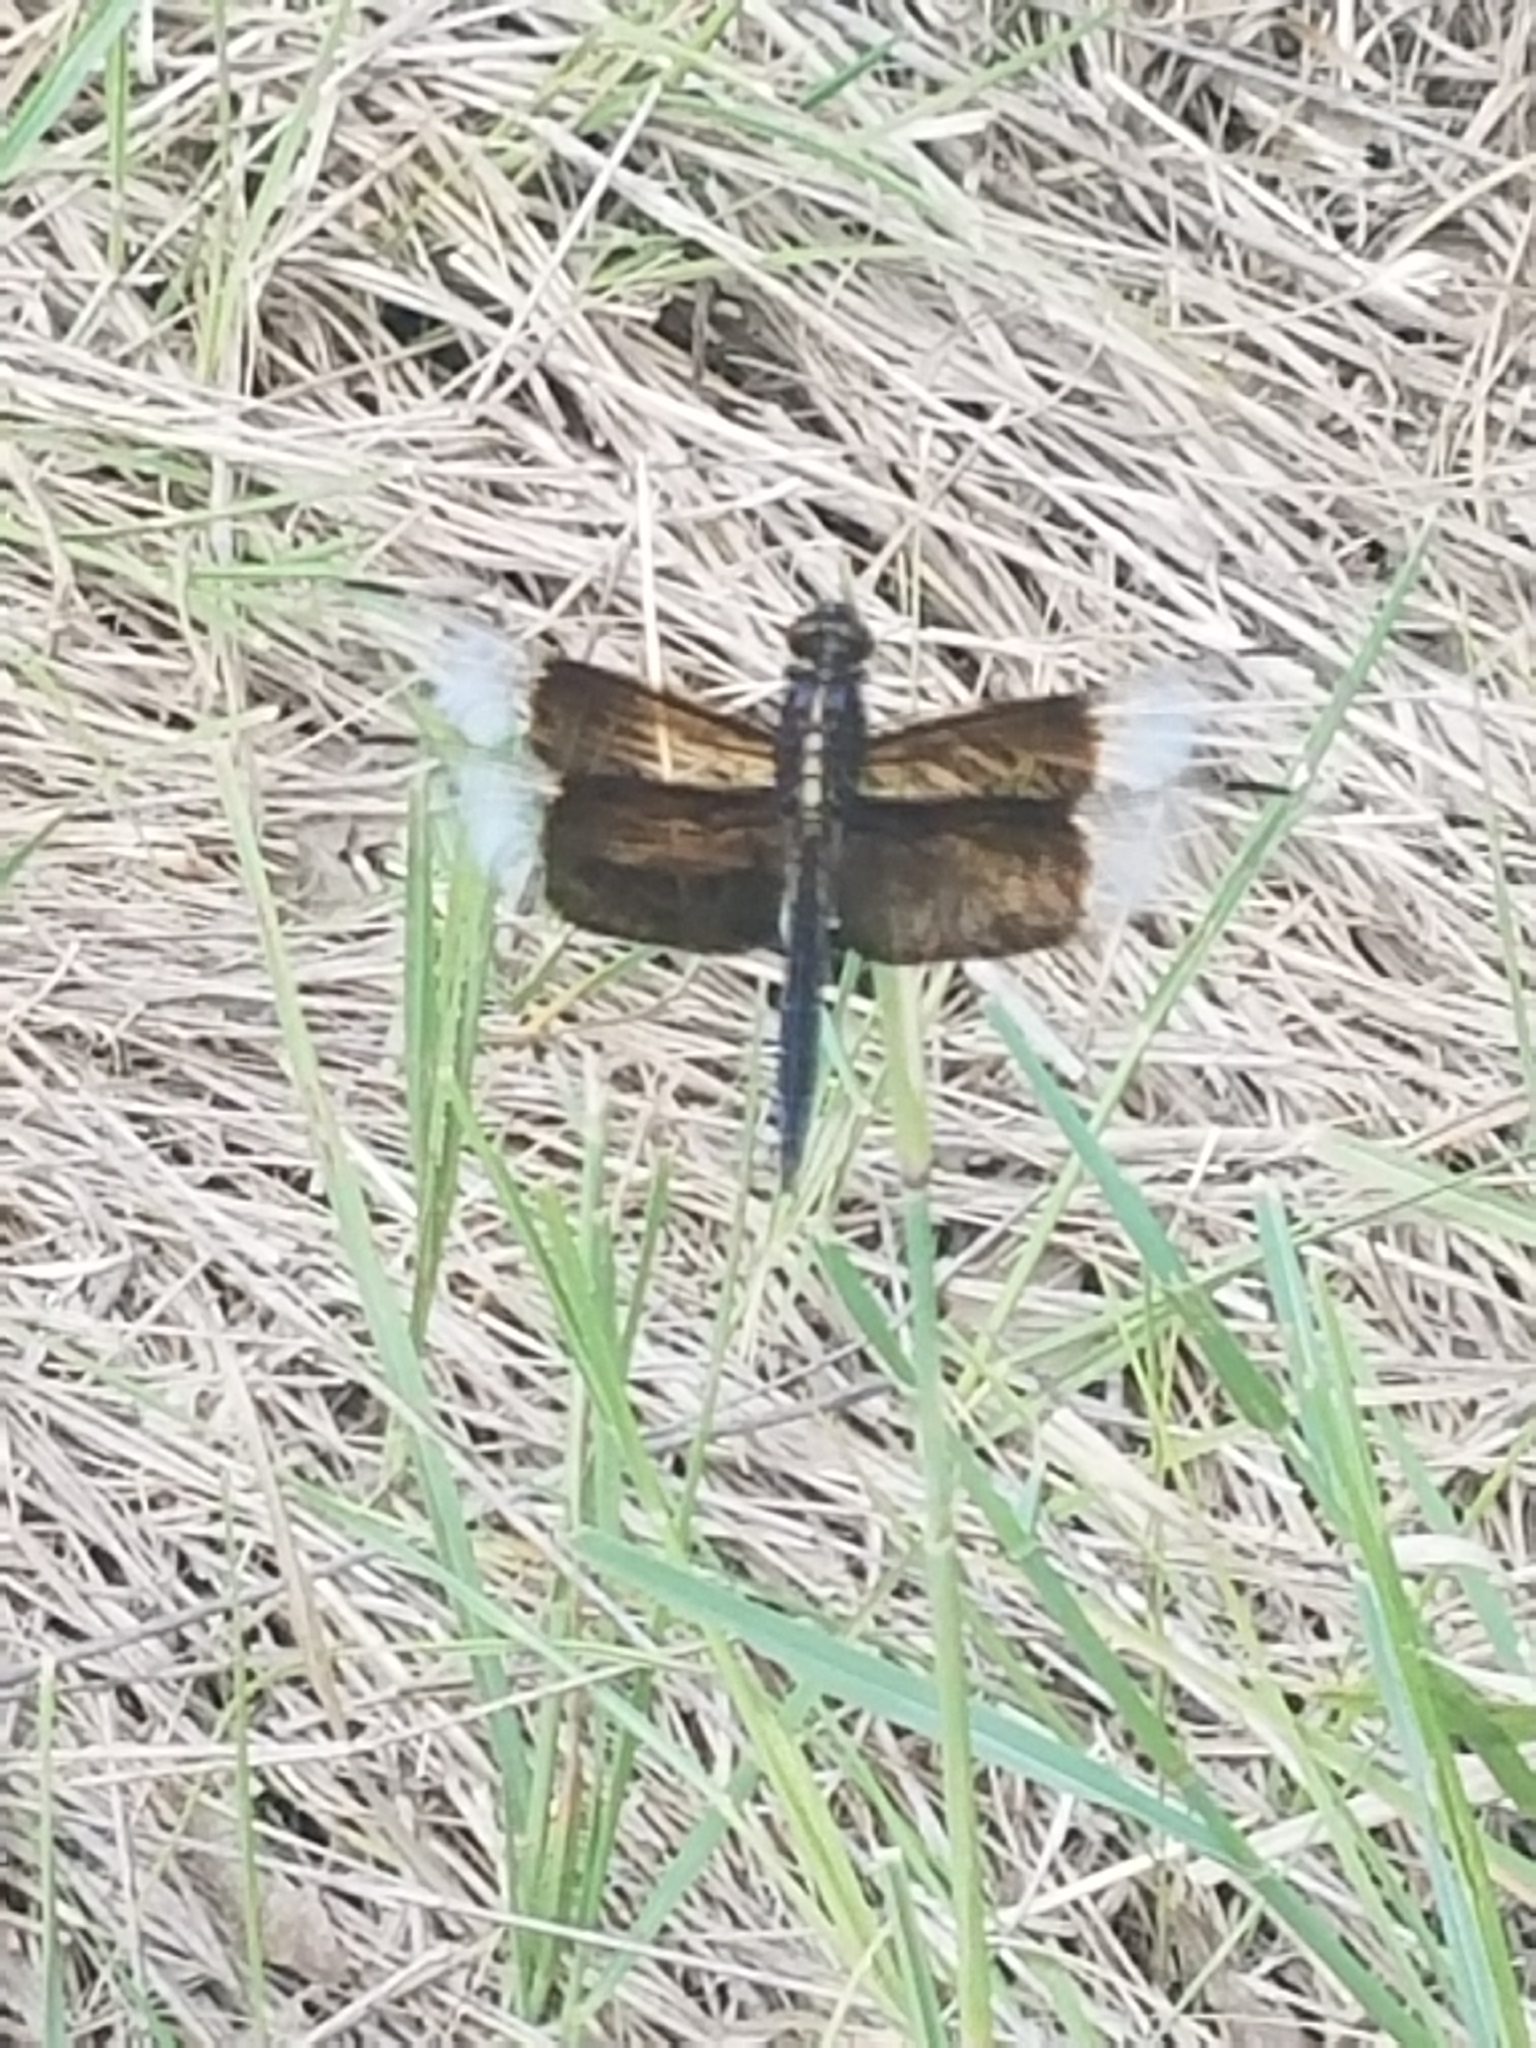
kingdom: Animalia
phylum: Arthropoda
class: Insecta
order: Odonata
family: Libellulidae
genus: Libellula
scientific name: Libellula luctuosa
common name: Widow skimmer
